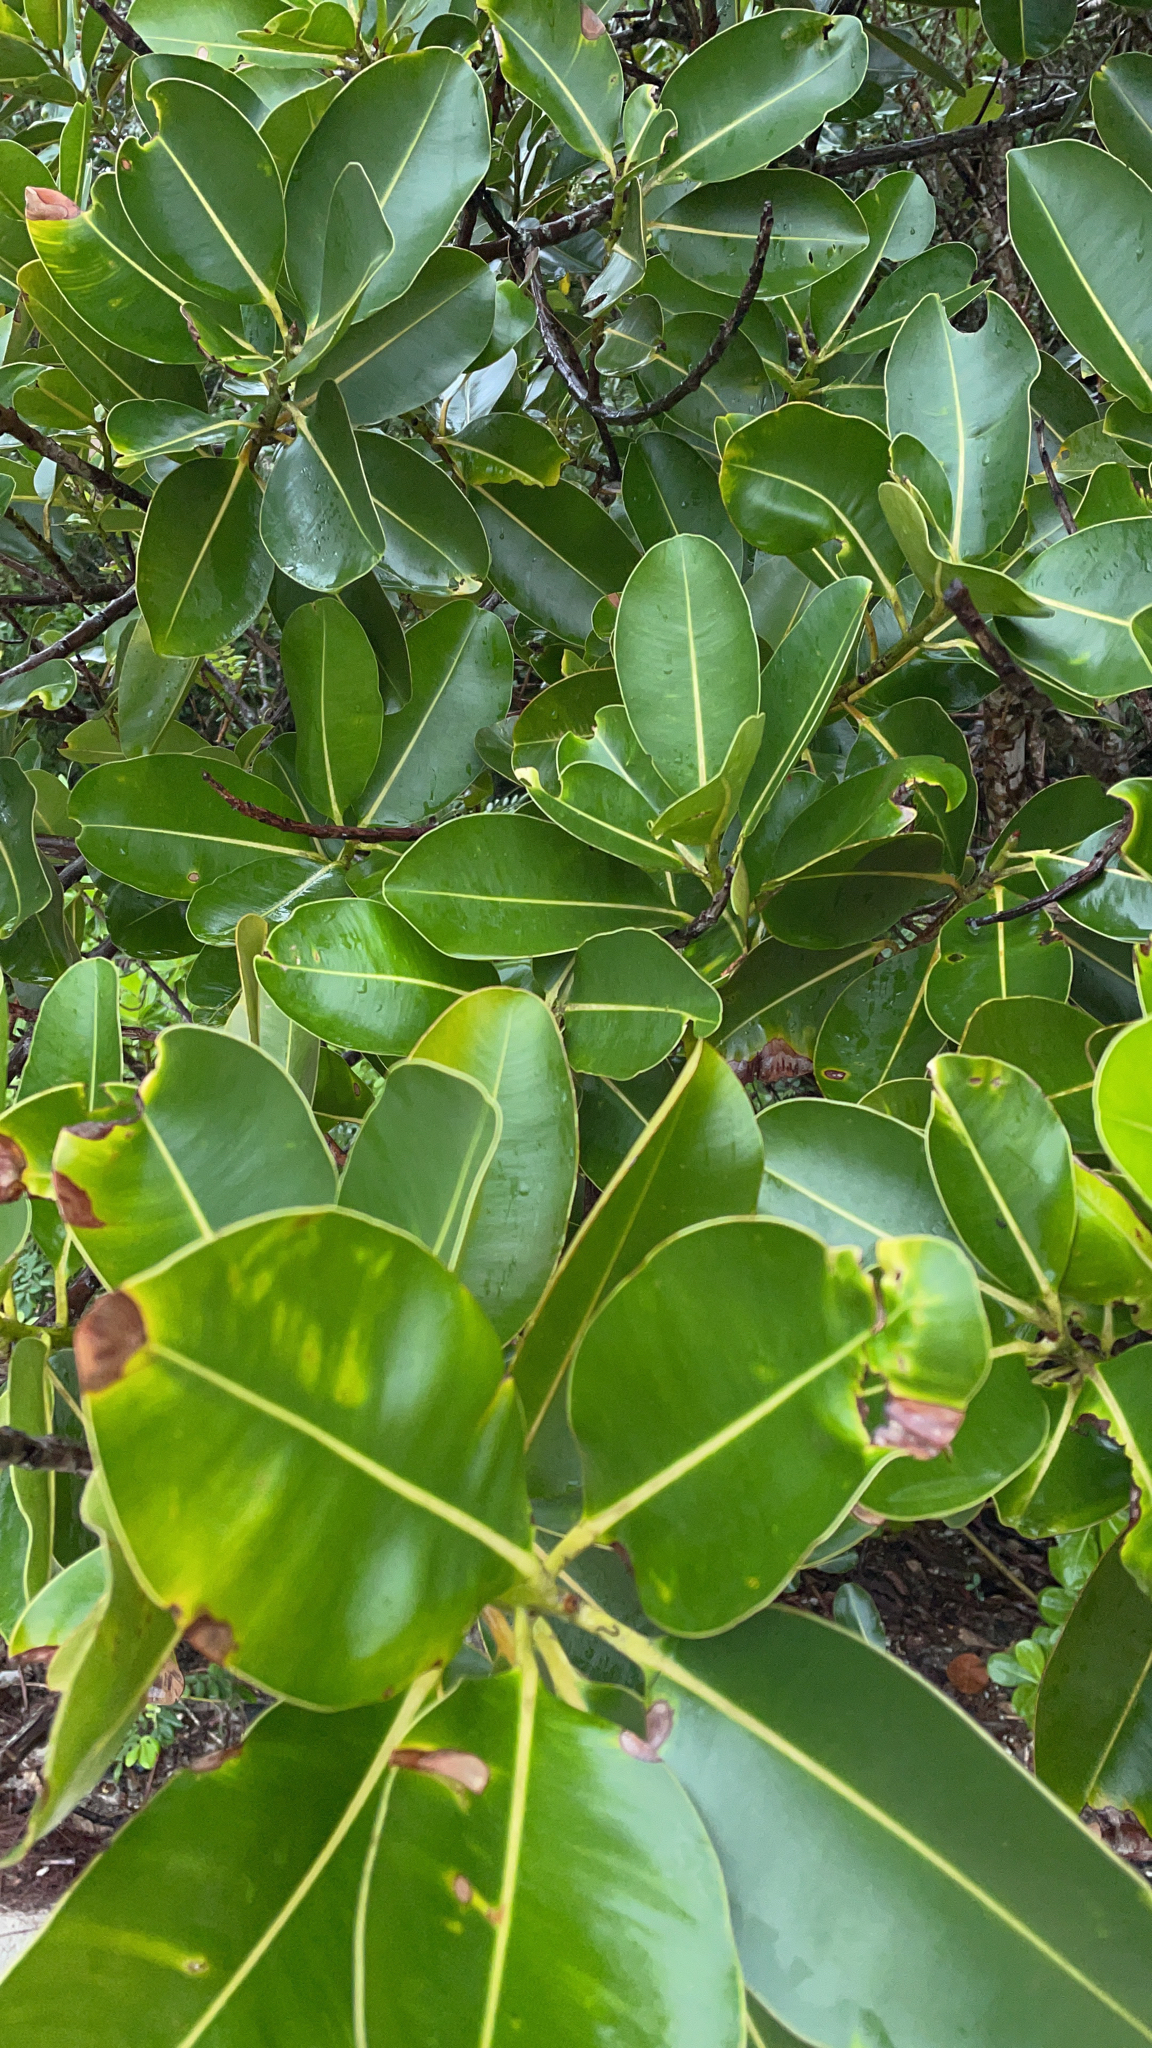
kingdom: Plantae
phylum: Tracheophyta
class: Magnoliopsida
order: Malpighiales
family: Calophyllaceae
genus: Calophyllum
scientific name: Calophyllum inophyllum
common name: Alexandrian laurel
